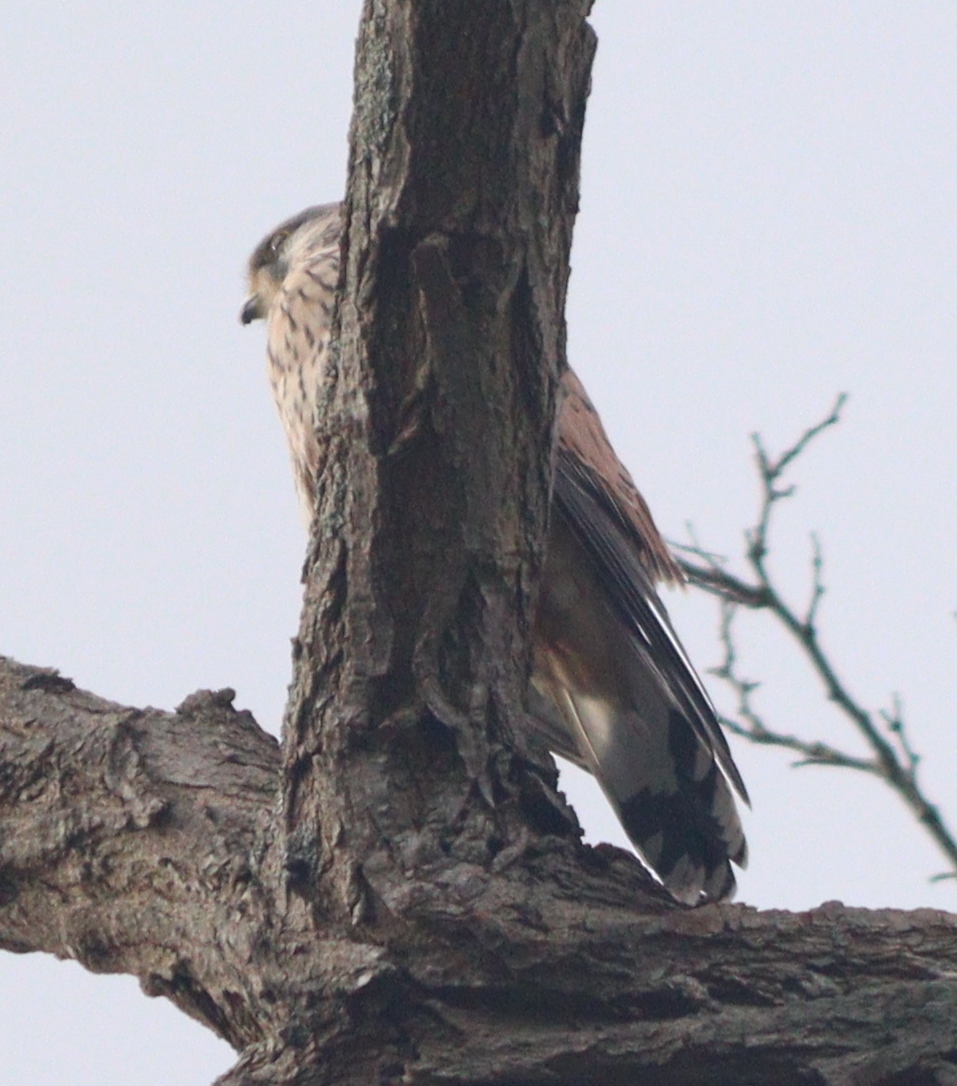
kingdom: Animalia
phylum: Chordata
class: Aves
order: Falconiformes
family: Falconidae
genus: Falco
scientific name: Falco tinnunculus
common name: Common kestrel
